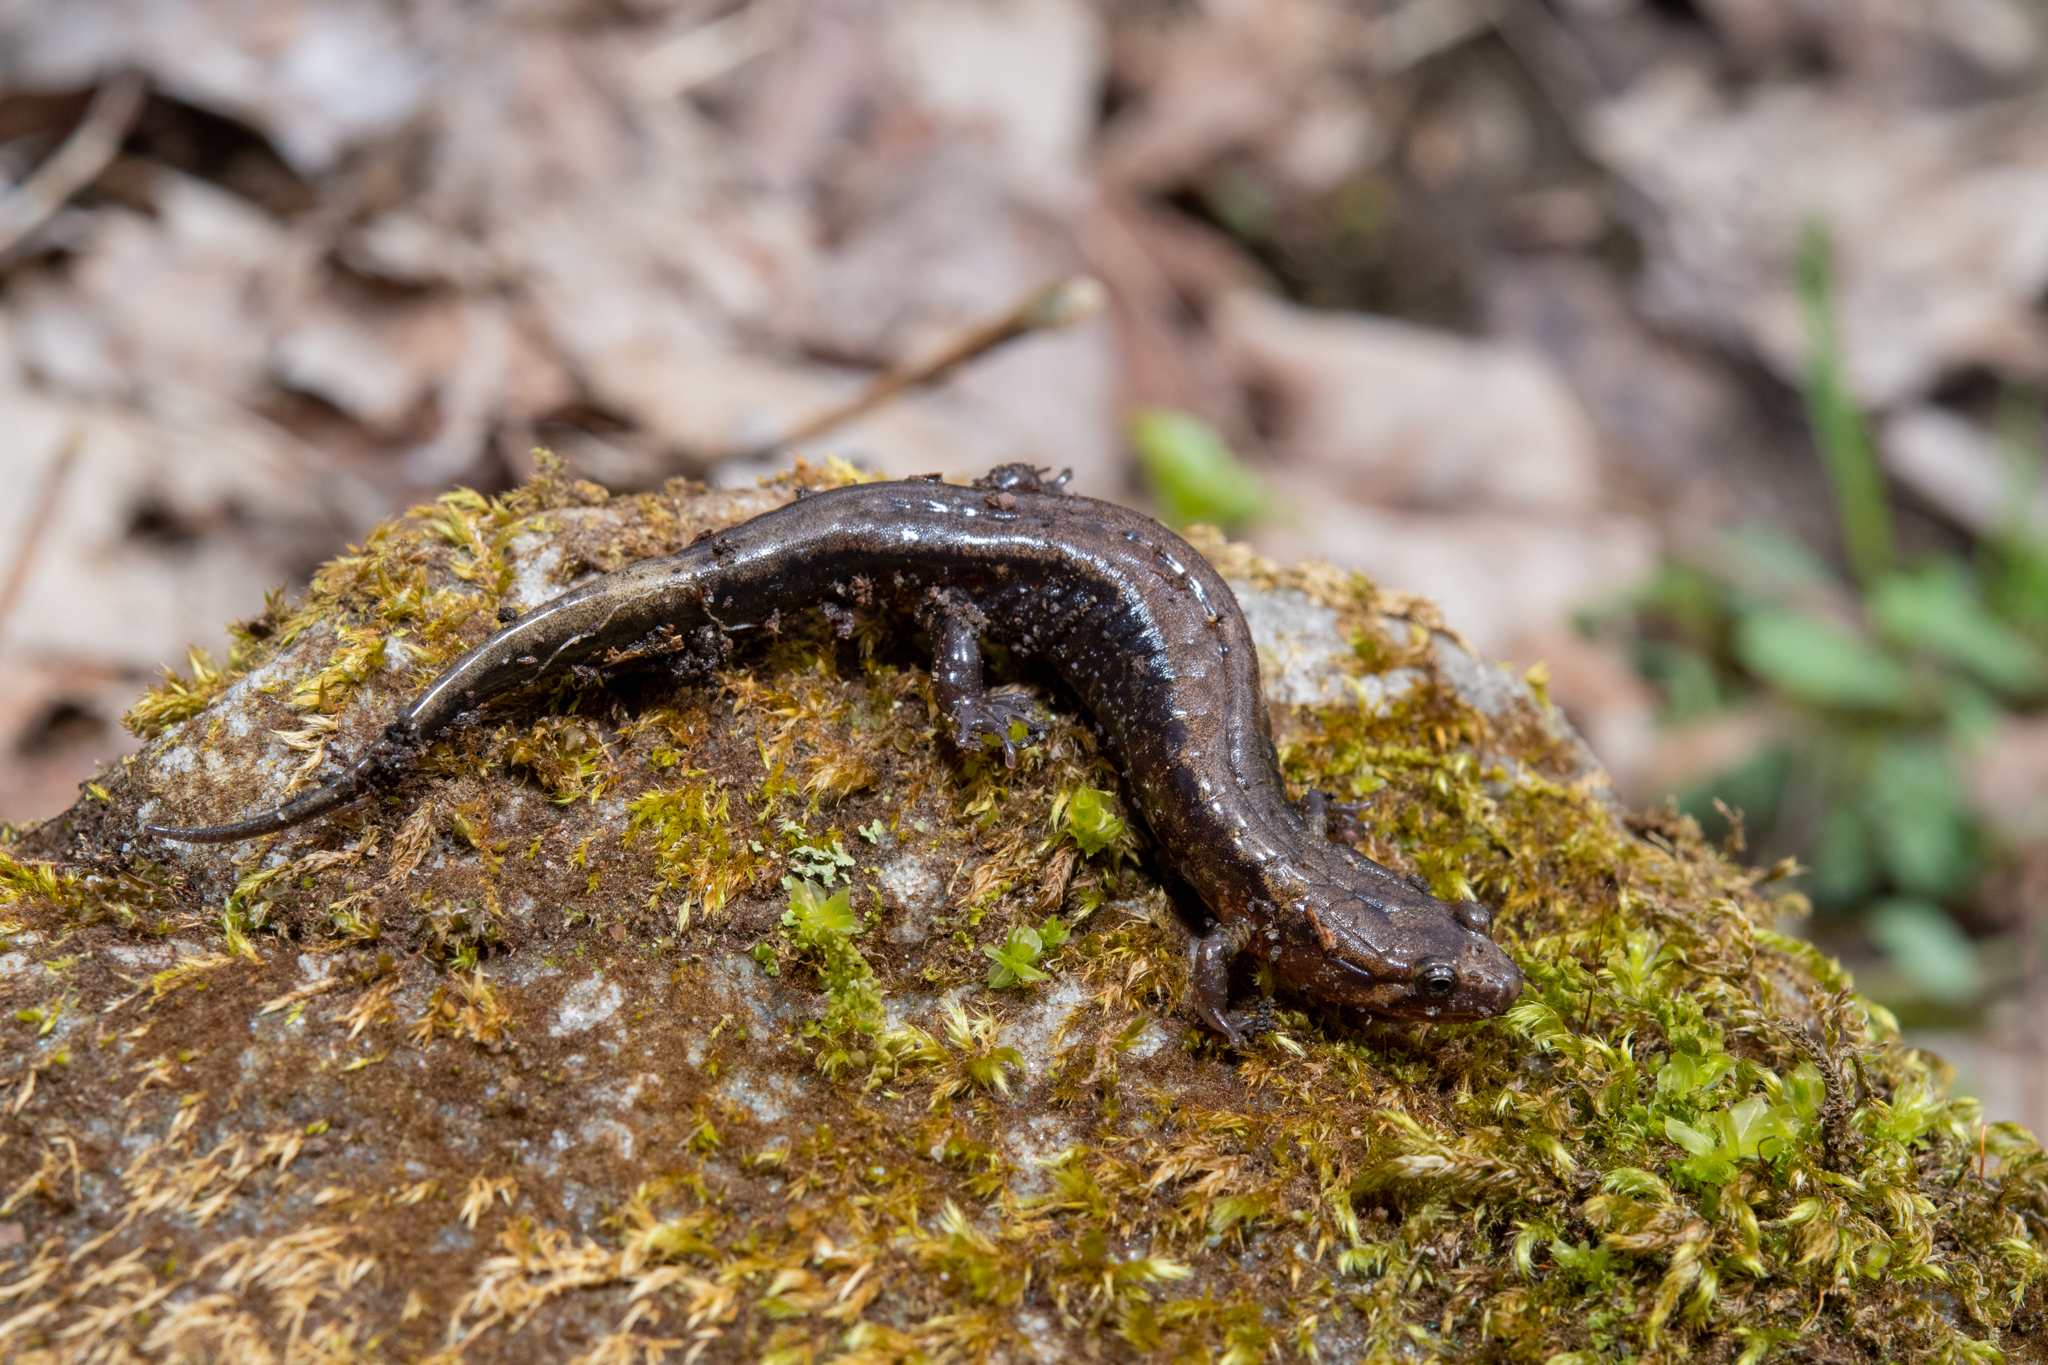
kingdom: Animalia
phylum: Chordata
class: Amphibia
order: Caudata
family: Plethodontidae
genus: Desmognathus
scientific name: Desmognathus ochrophaeus
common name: Allegheny mountain dusky salamander
